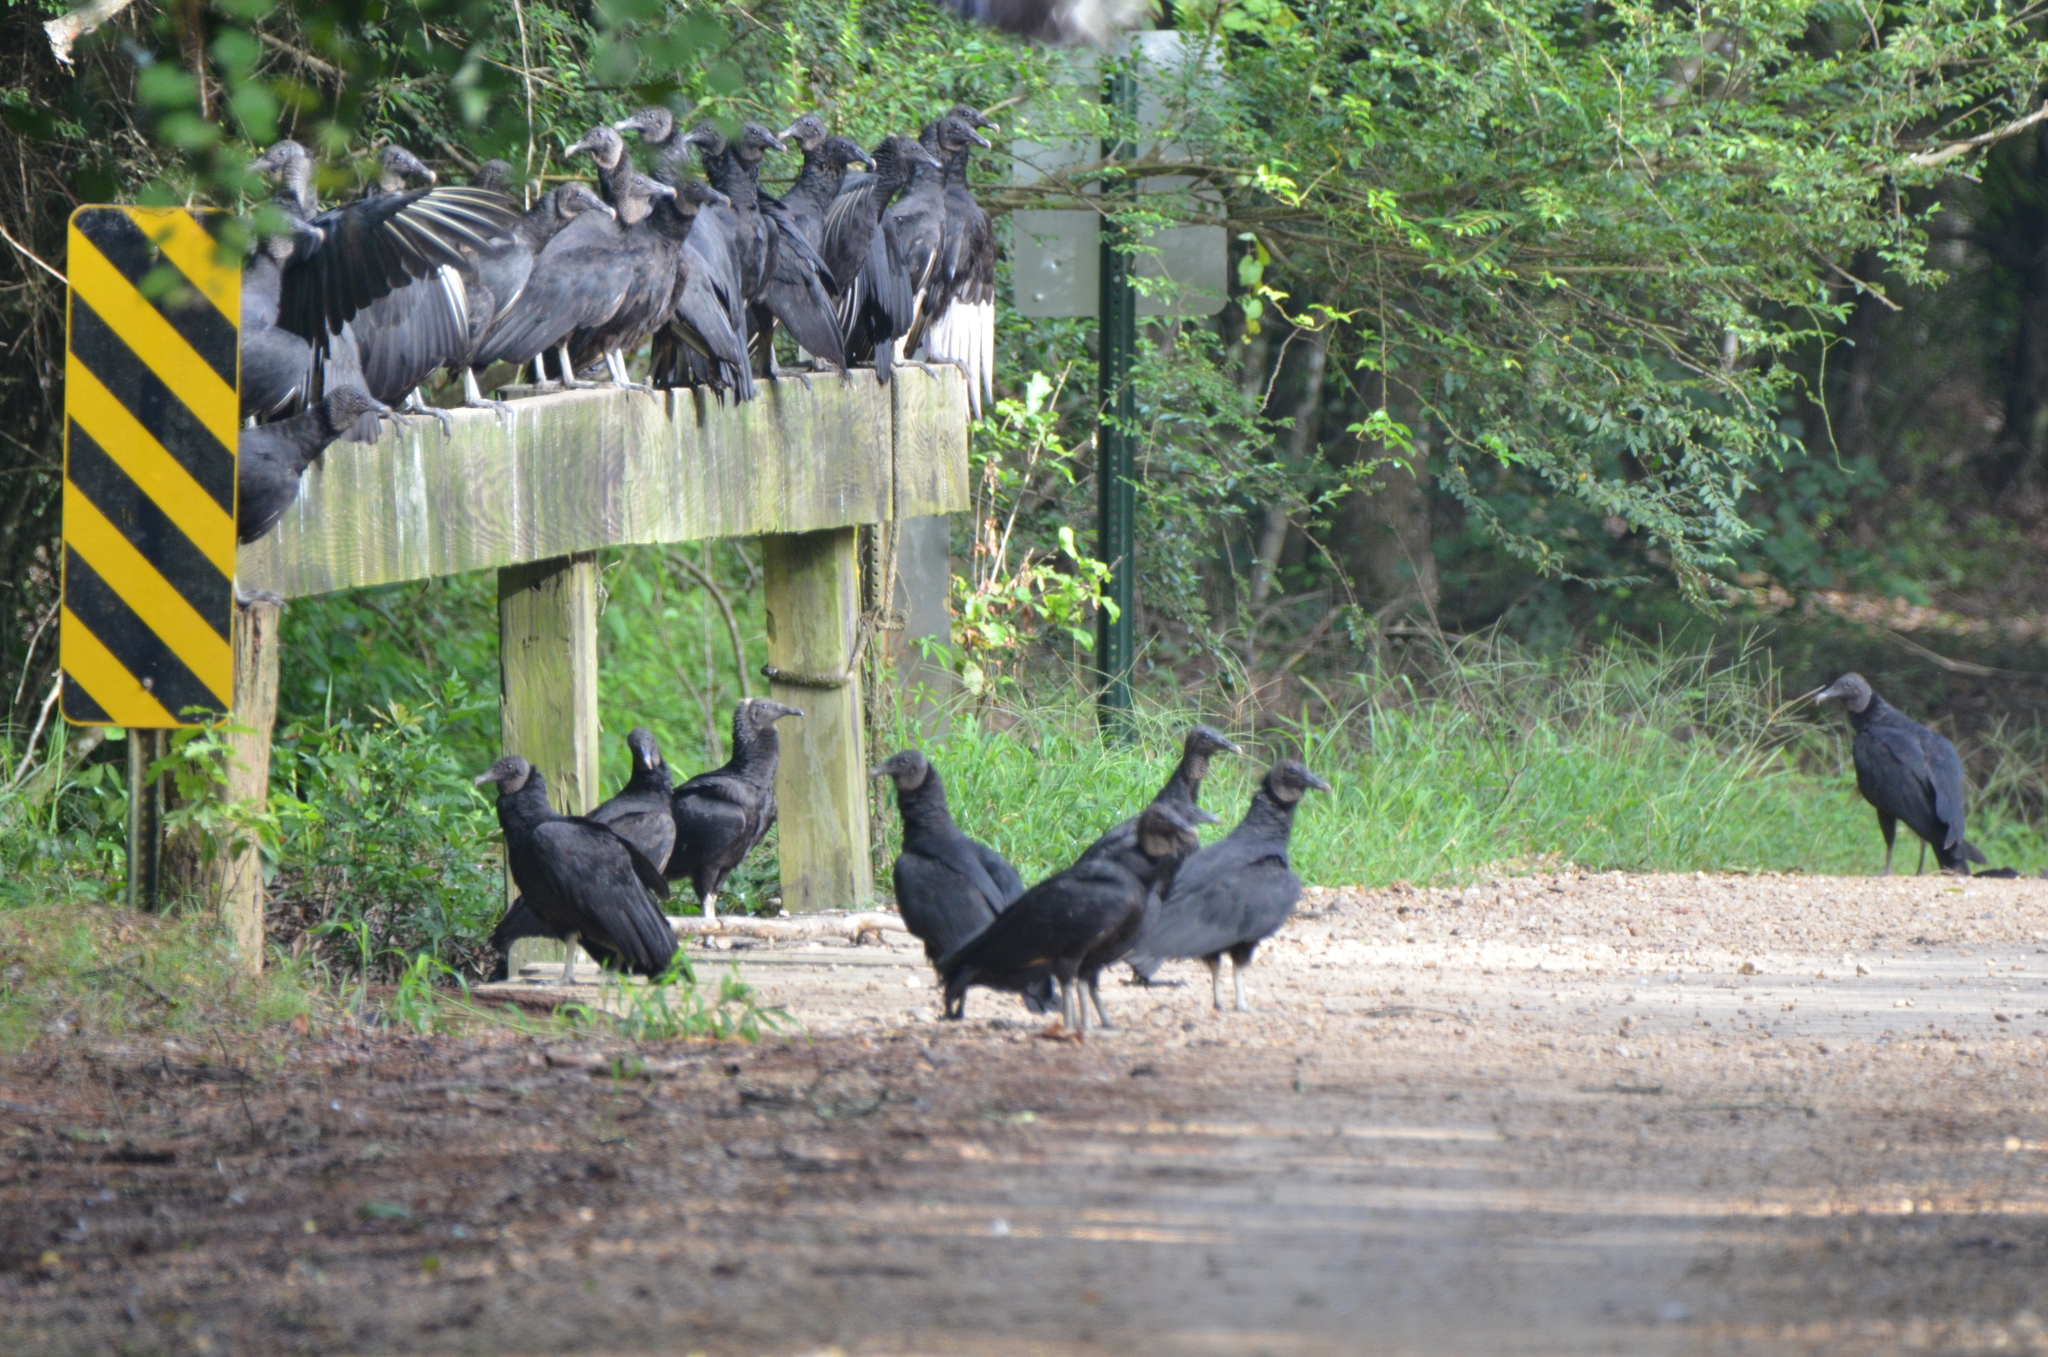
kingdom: Animalia
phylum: Chordata
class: Aves
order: Accipitriformes
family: Cathartidae
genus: Coragyps
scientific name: Coragyps atratus
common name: Black vulture
